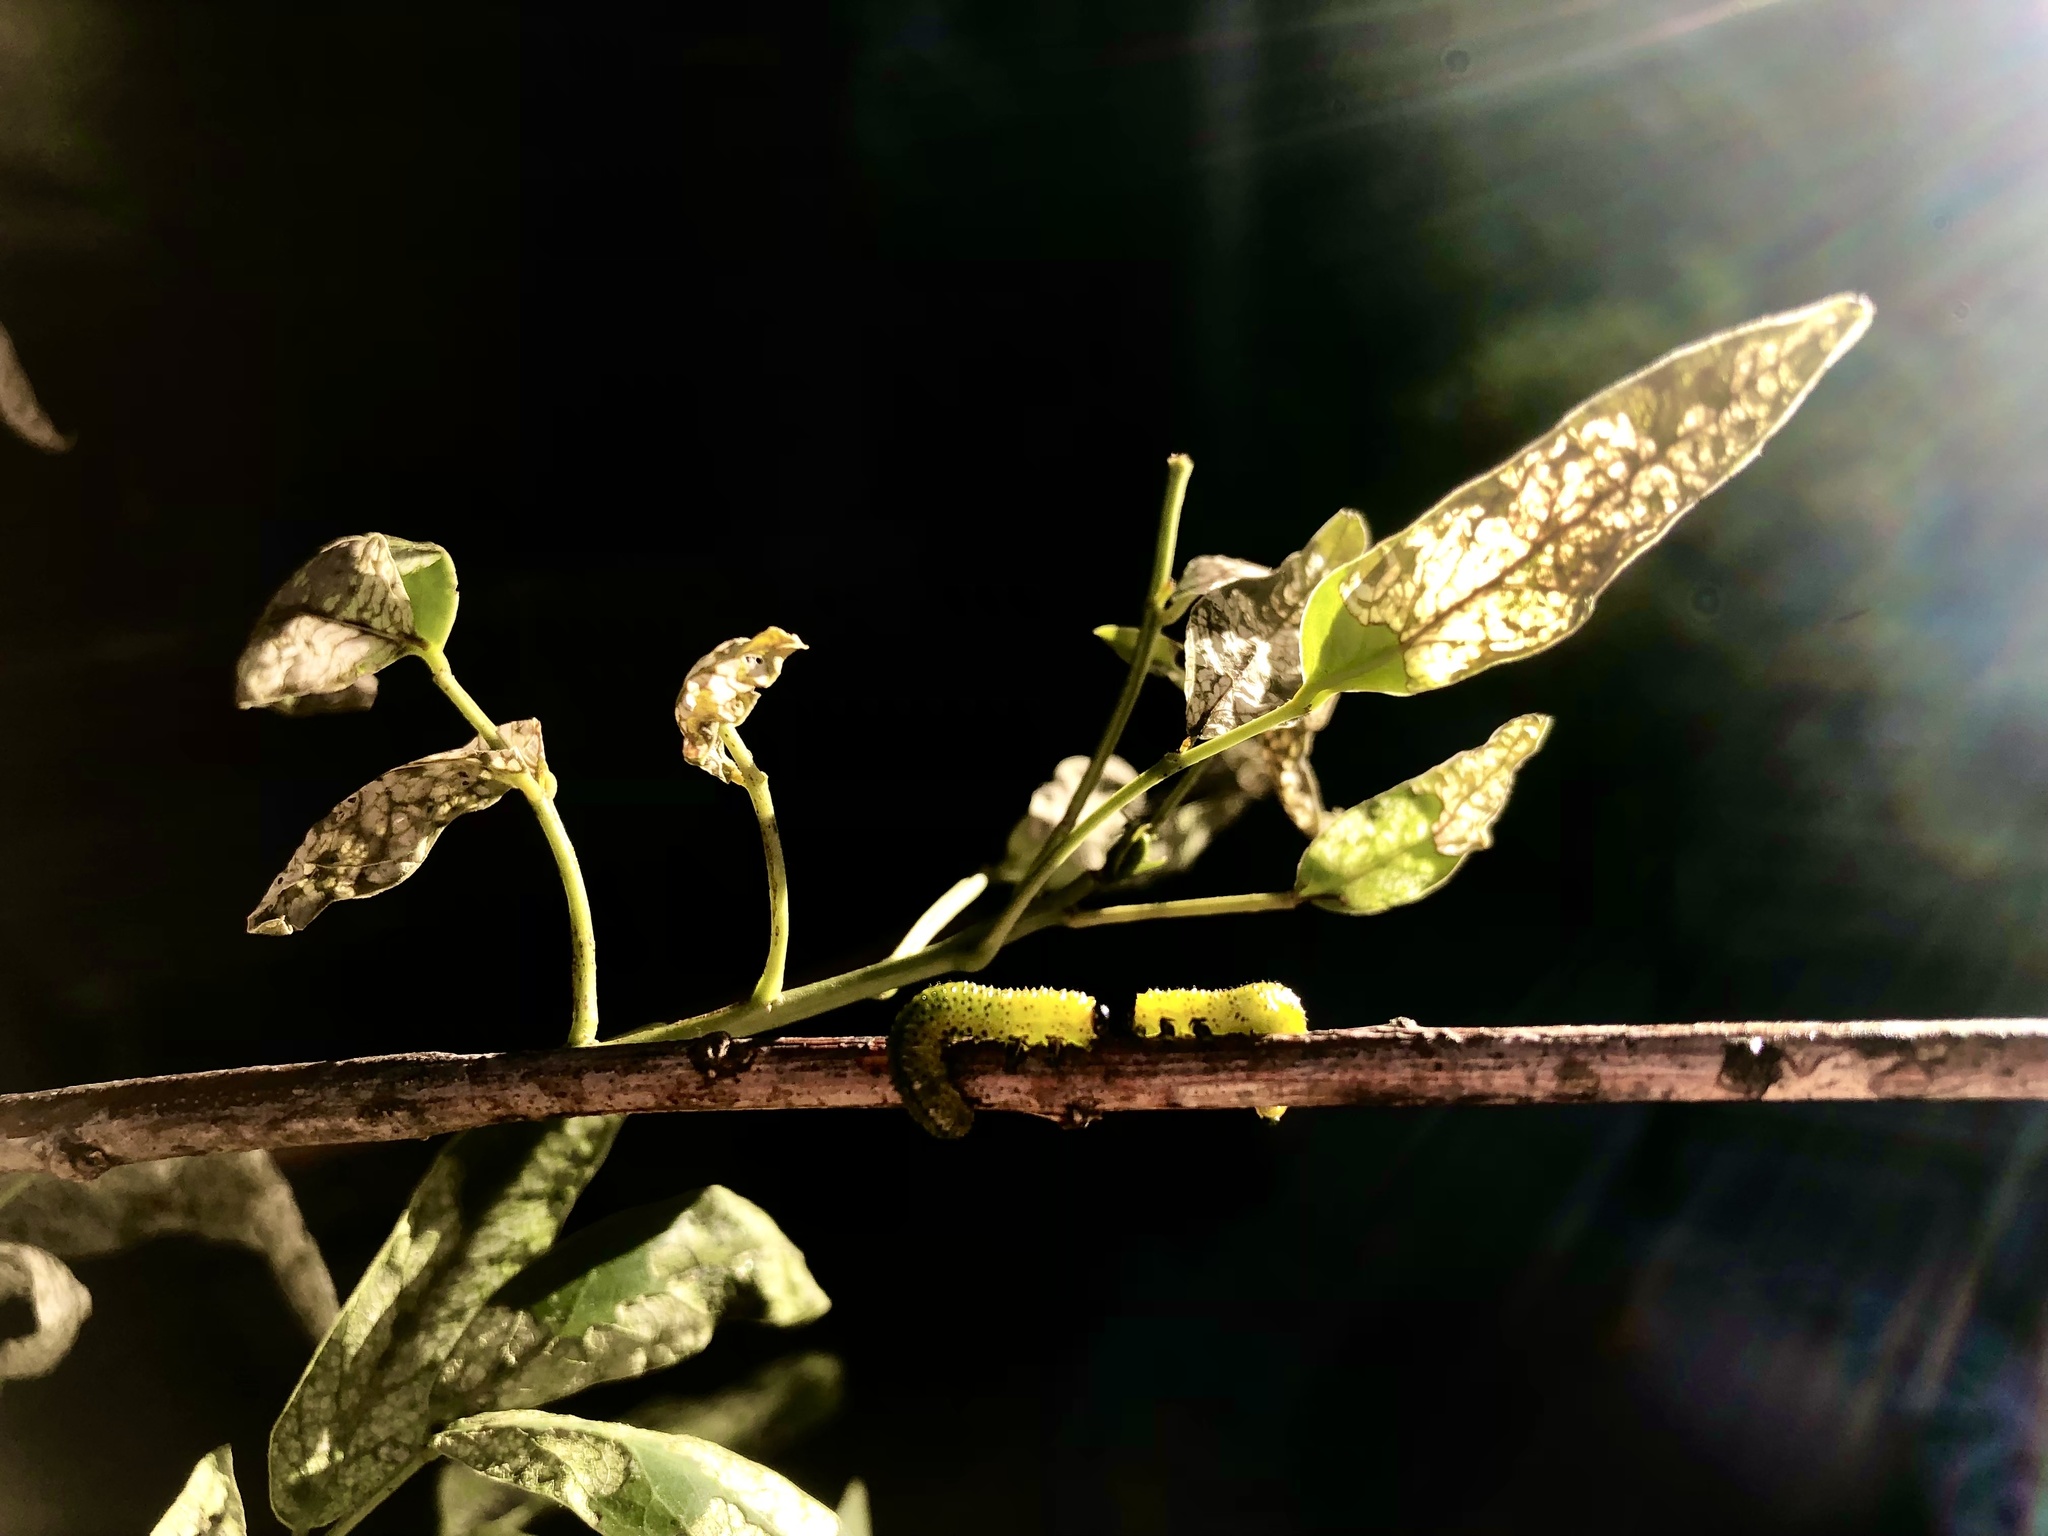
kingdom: Animalia
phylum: Arthropoda
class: Insecta
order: Hymenoptera
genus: Adurgoa
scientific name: Adurgoa
